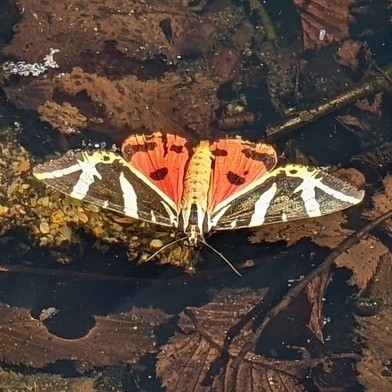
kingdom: Animalia
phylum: Arthropoda
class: Insecta
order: Lepidoptera
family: Erebidae
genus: Euplagia
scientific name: Euplagia quadripunctaria
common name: Jersey tiger
